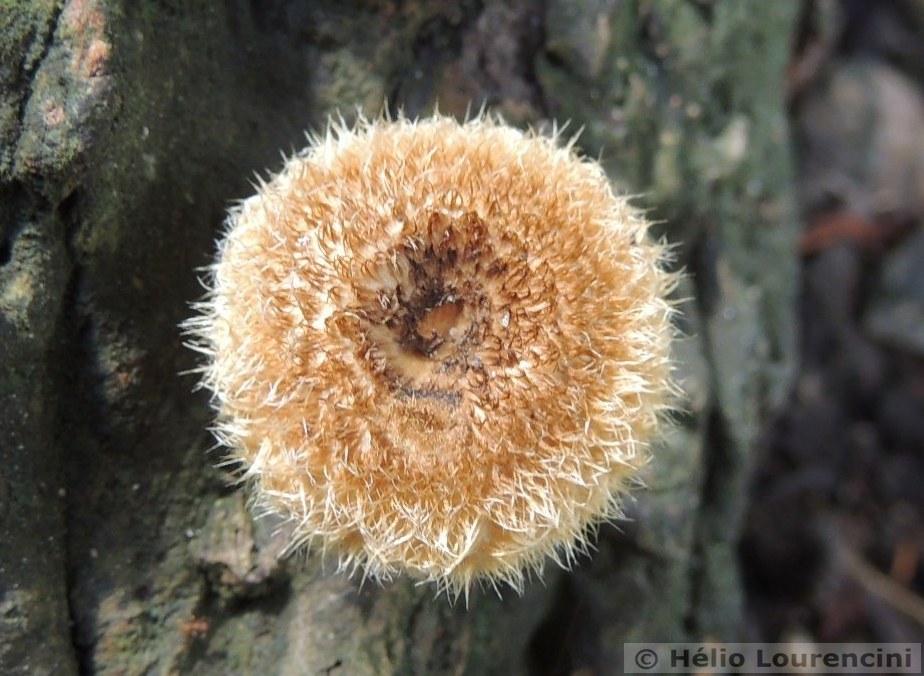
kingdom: Fungi
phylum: Basidiomycota
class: Agaricomycetes
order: Polyporales
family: Polyporaceae
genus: Lentinus
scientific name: Lentinus berteroi
